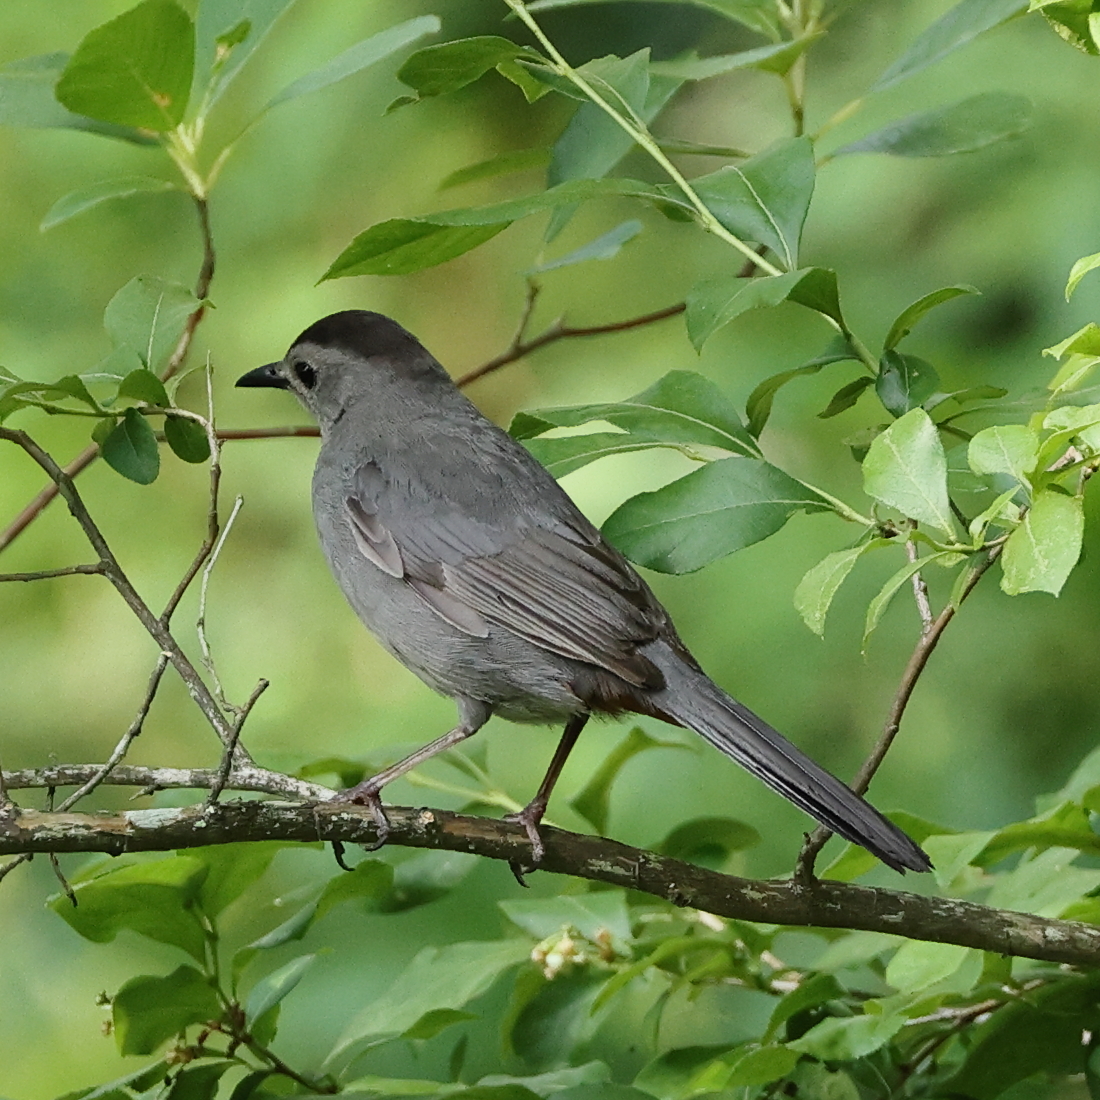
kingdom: Animalia
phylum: Chordata
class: Aves
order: Passeriformes
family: Mimidae
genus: Dumetella
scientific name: Dumetella carolinensis
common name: Gray catbird
